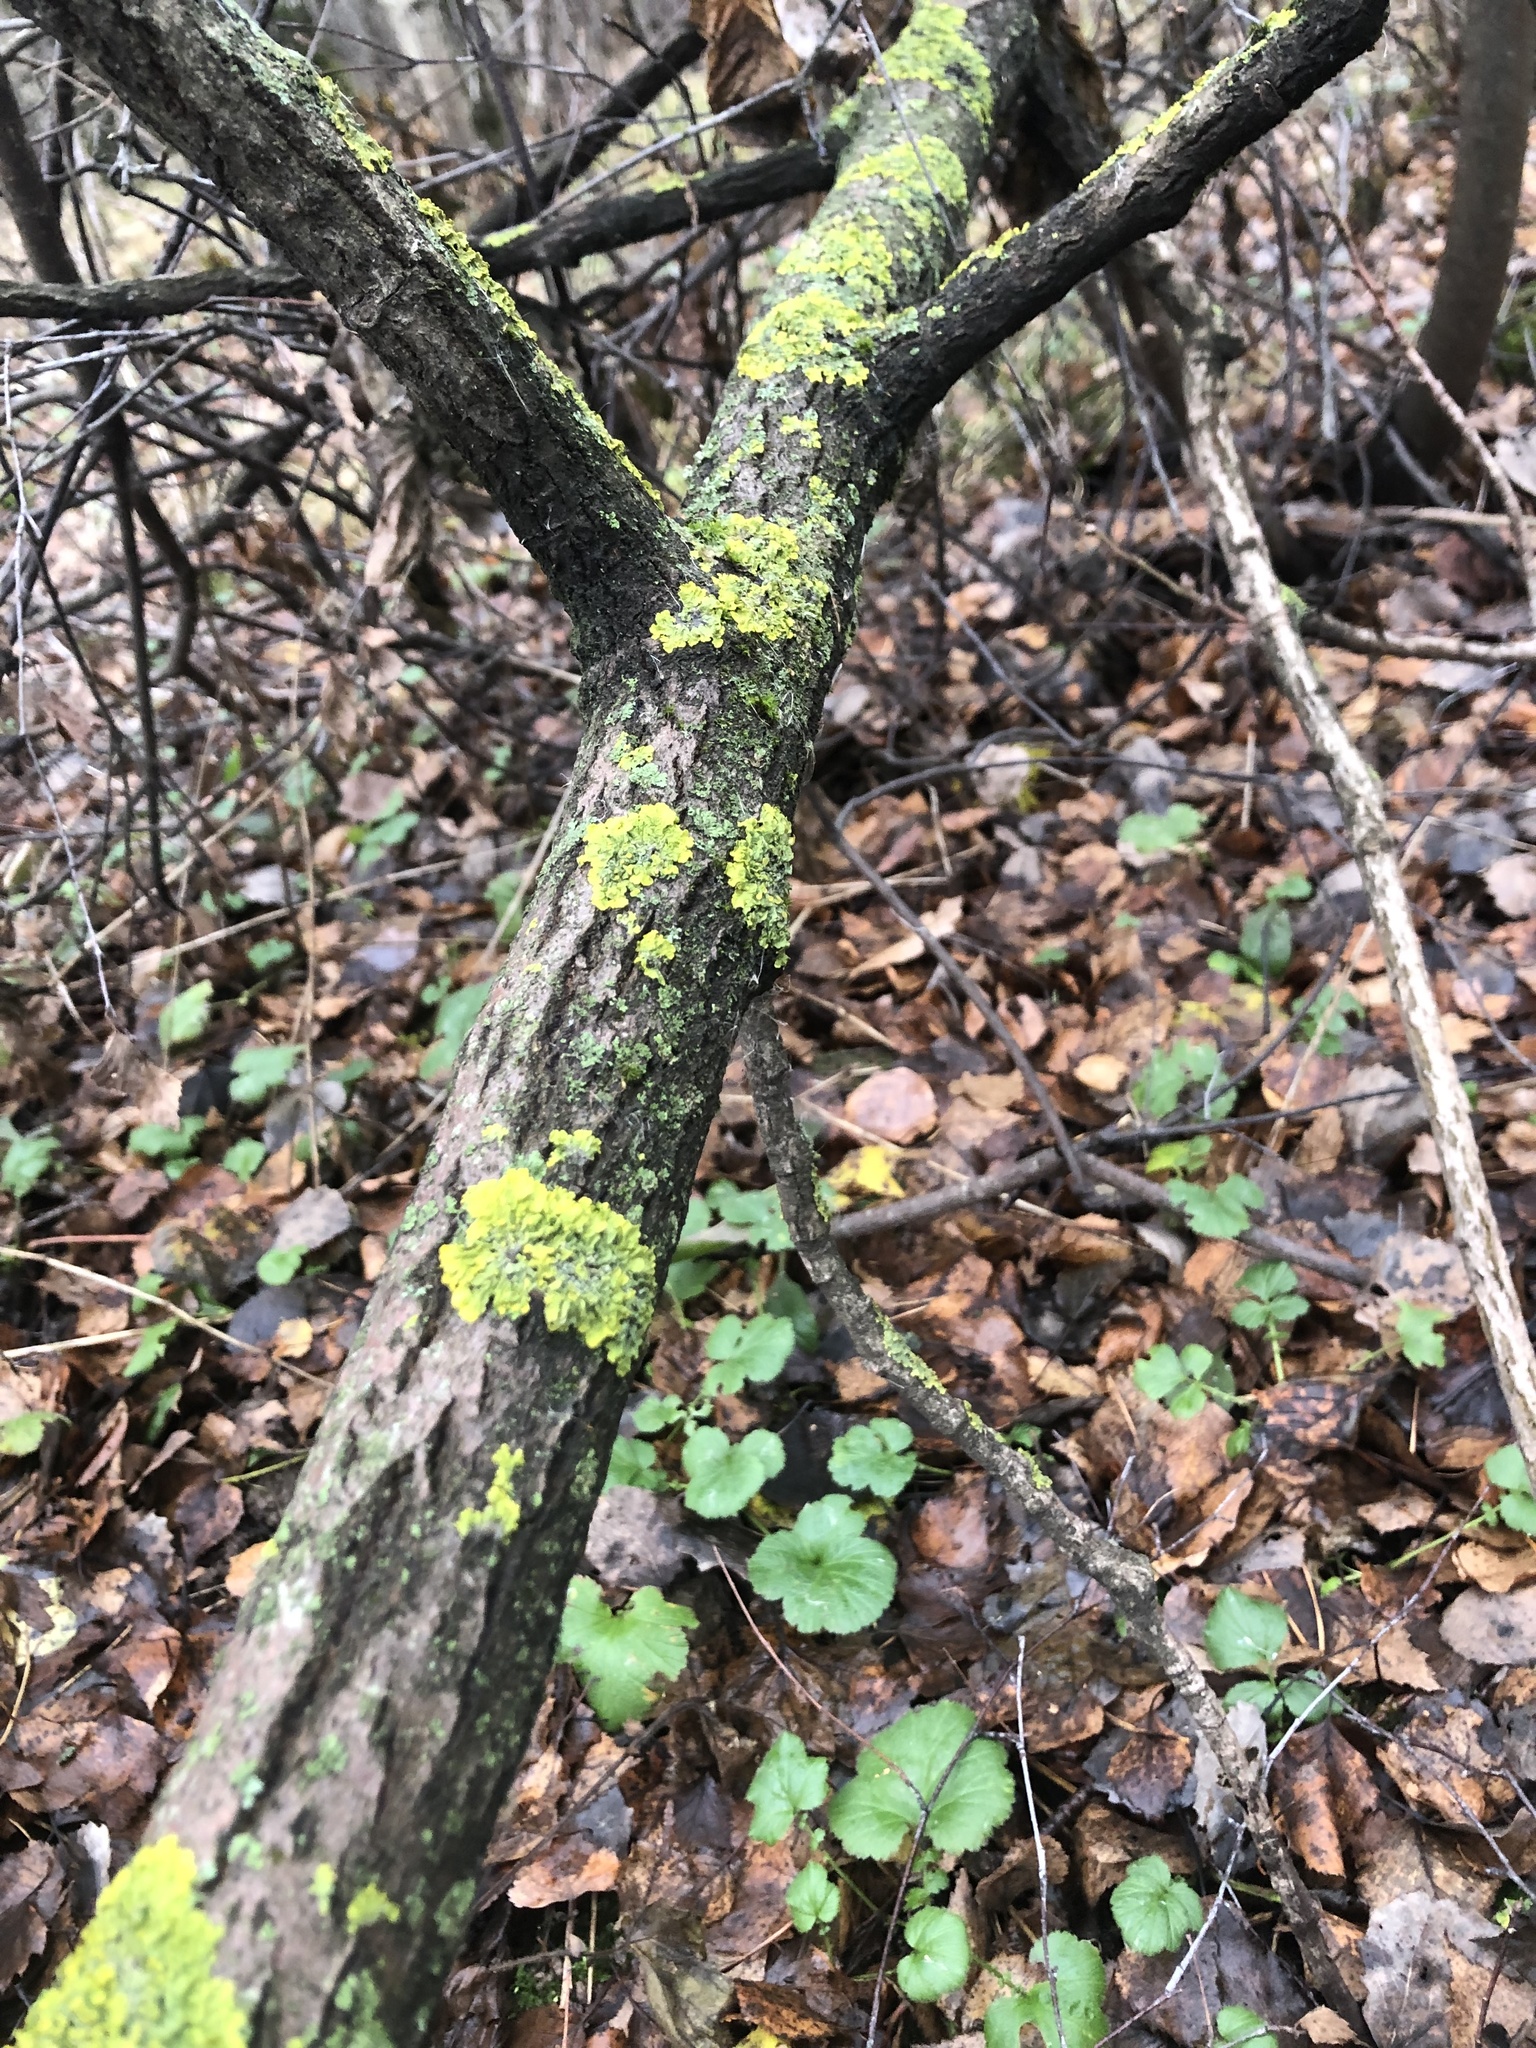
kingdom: Fungi
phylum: Ascomycota
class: Lecanoromycetes
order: Teloschistales
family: Teloschistaceae
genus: Xanthoria
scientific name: Xanthoria parietina
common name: Common orange lichen
